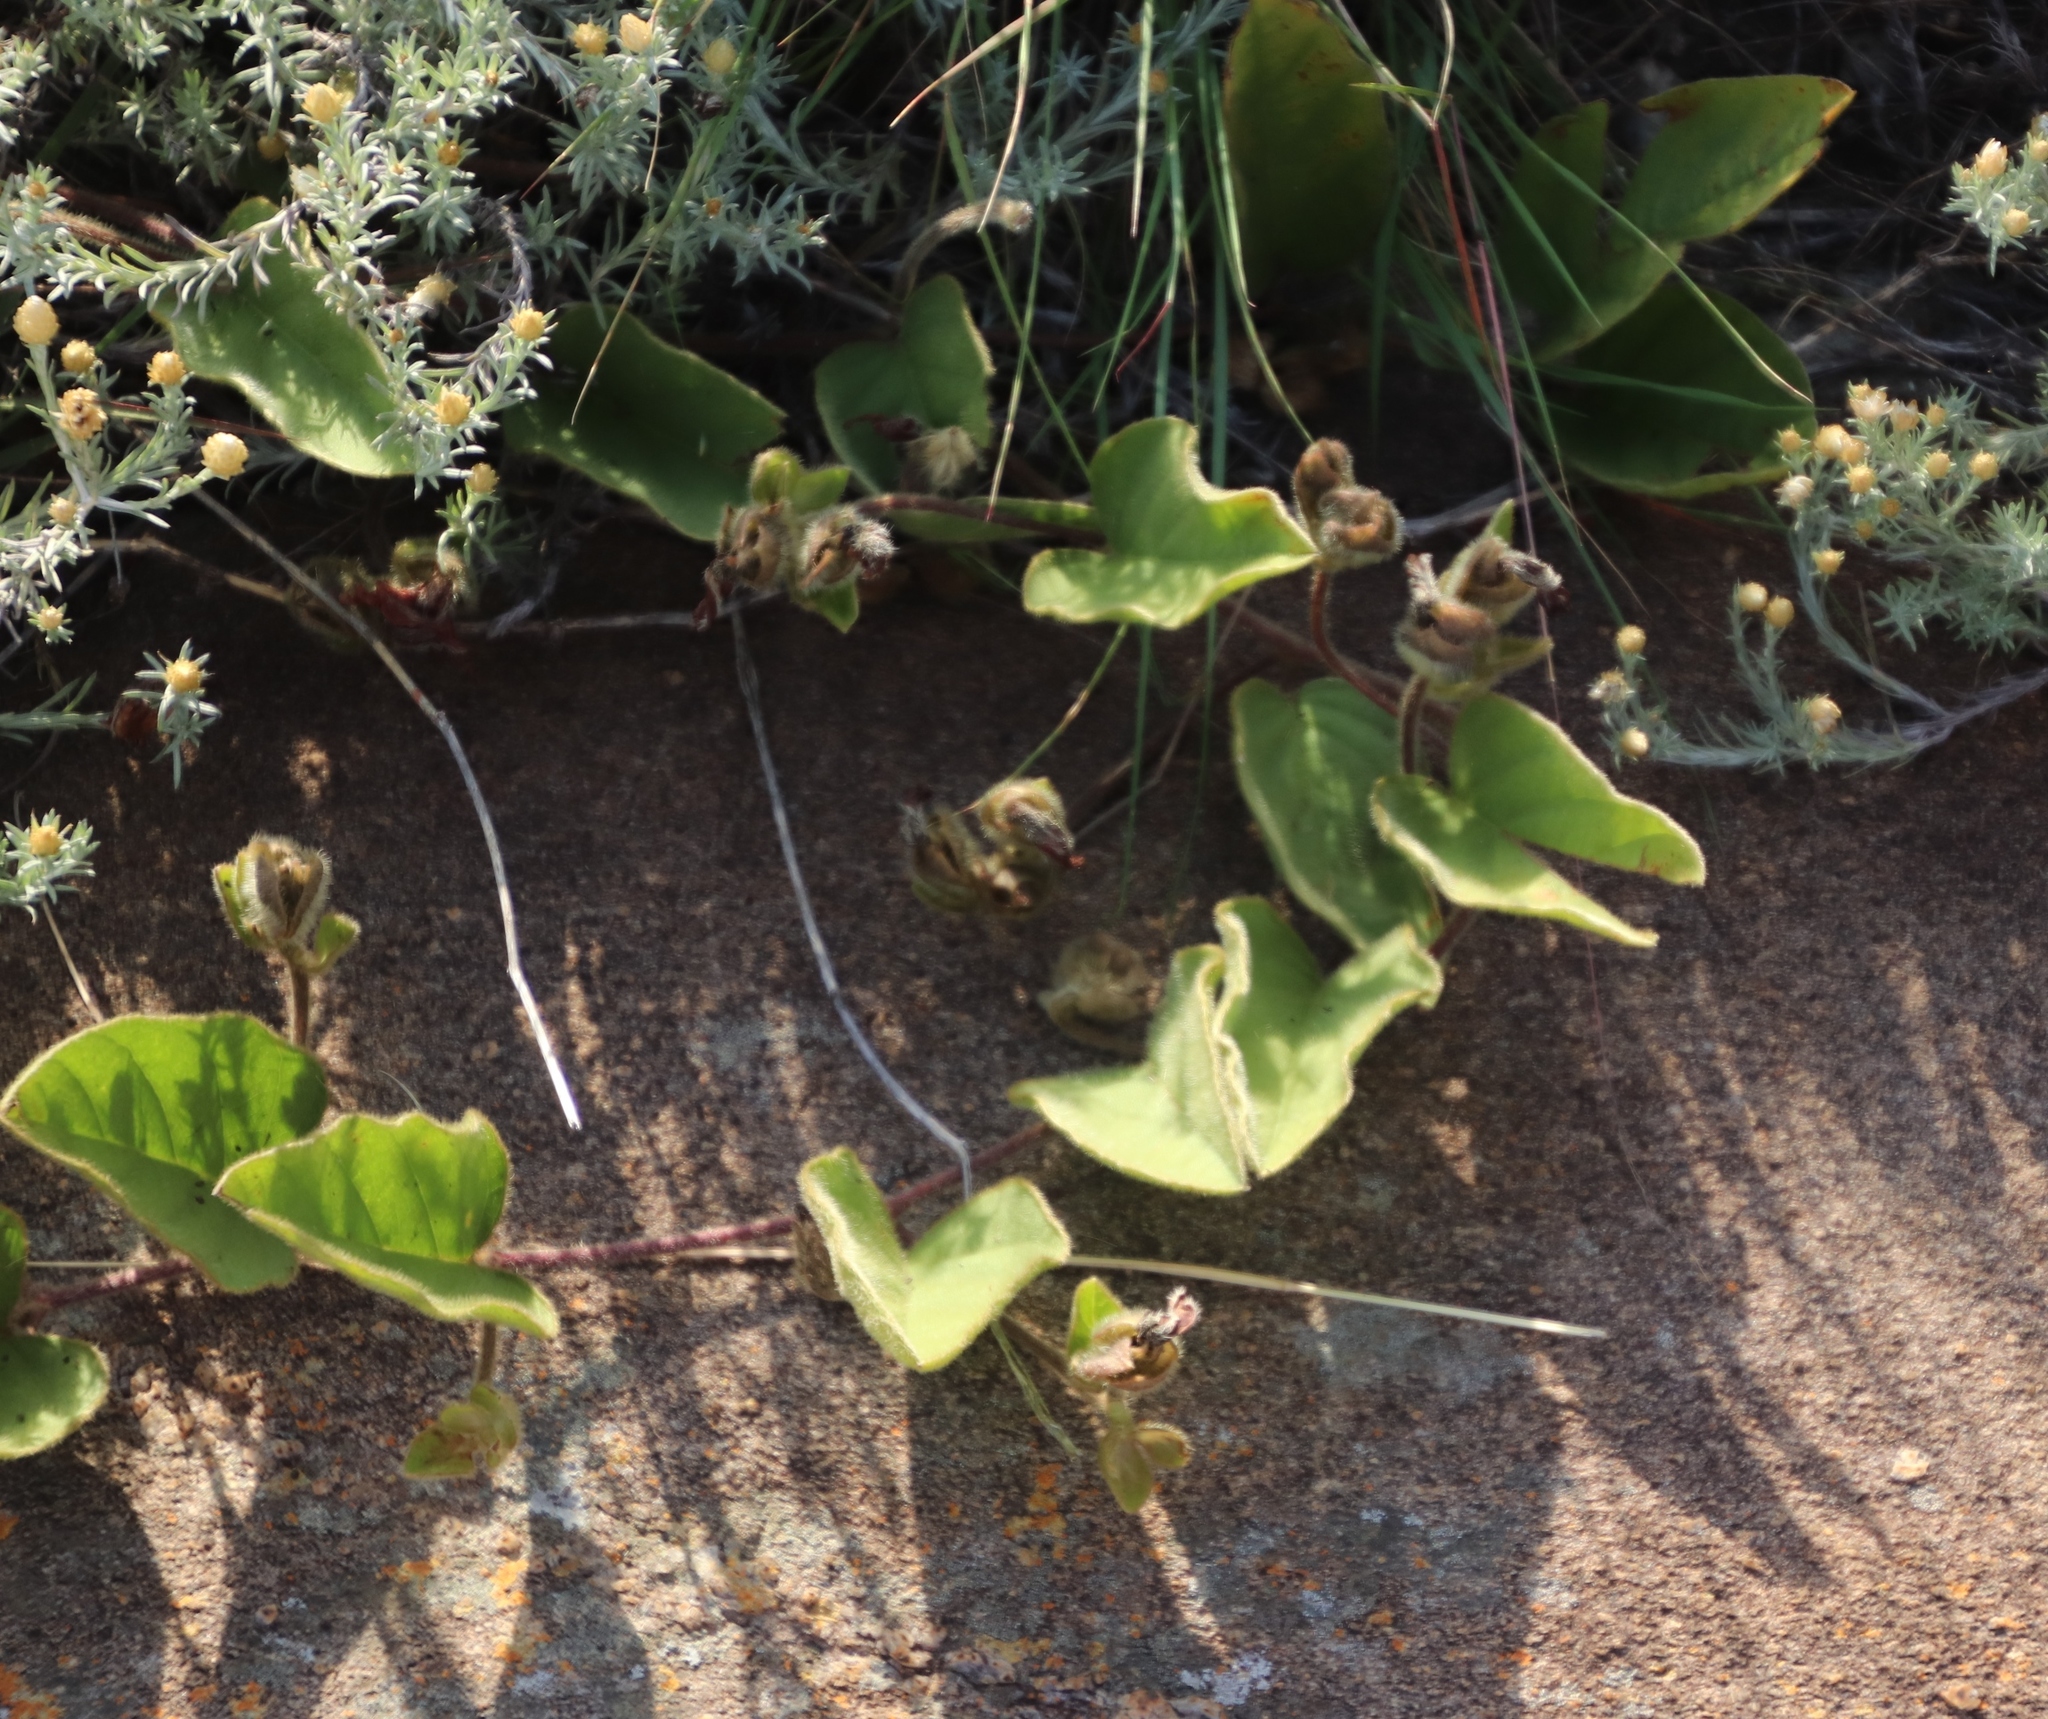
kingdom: Plantae
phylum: Tracheophyta
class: Magnoliopsida
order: Solanales
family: Convolvulaceae
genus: Ipomoea
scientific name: Ipomoea oblongata
